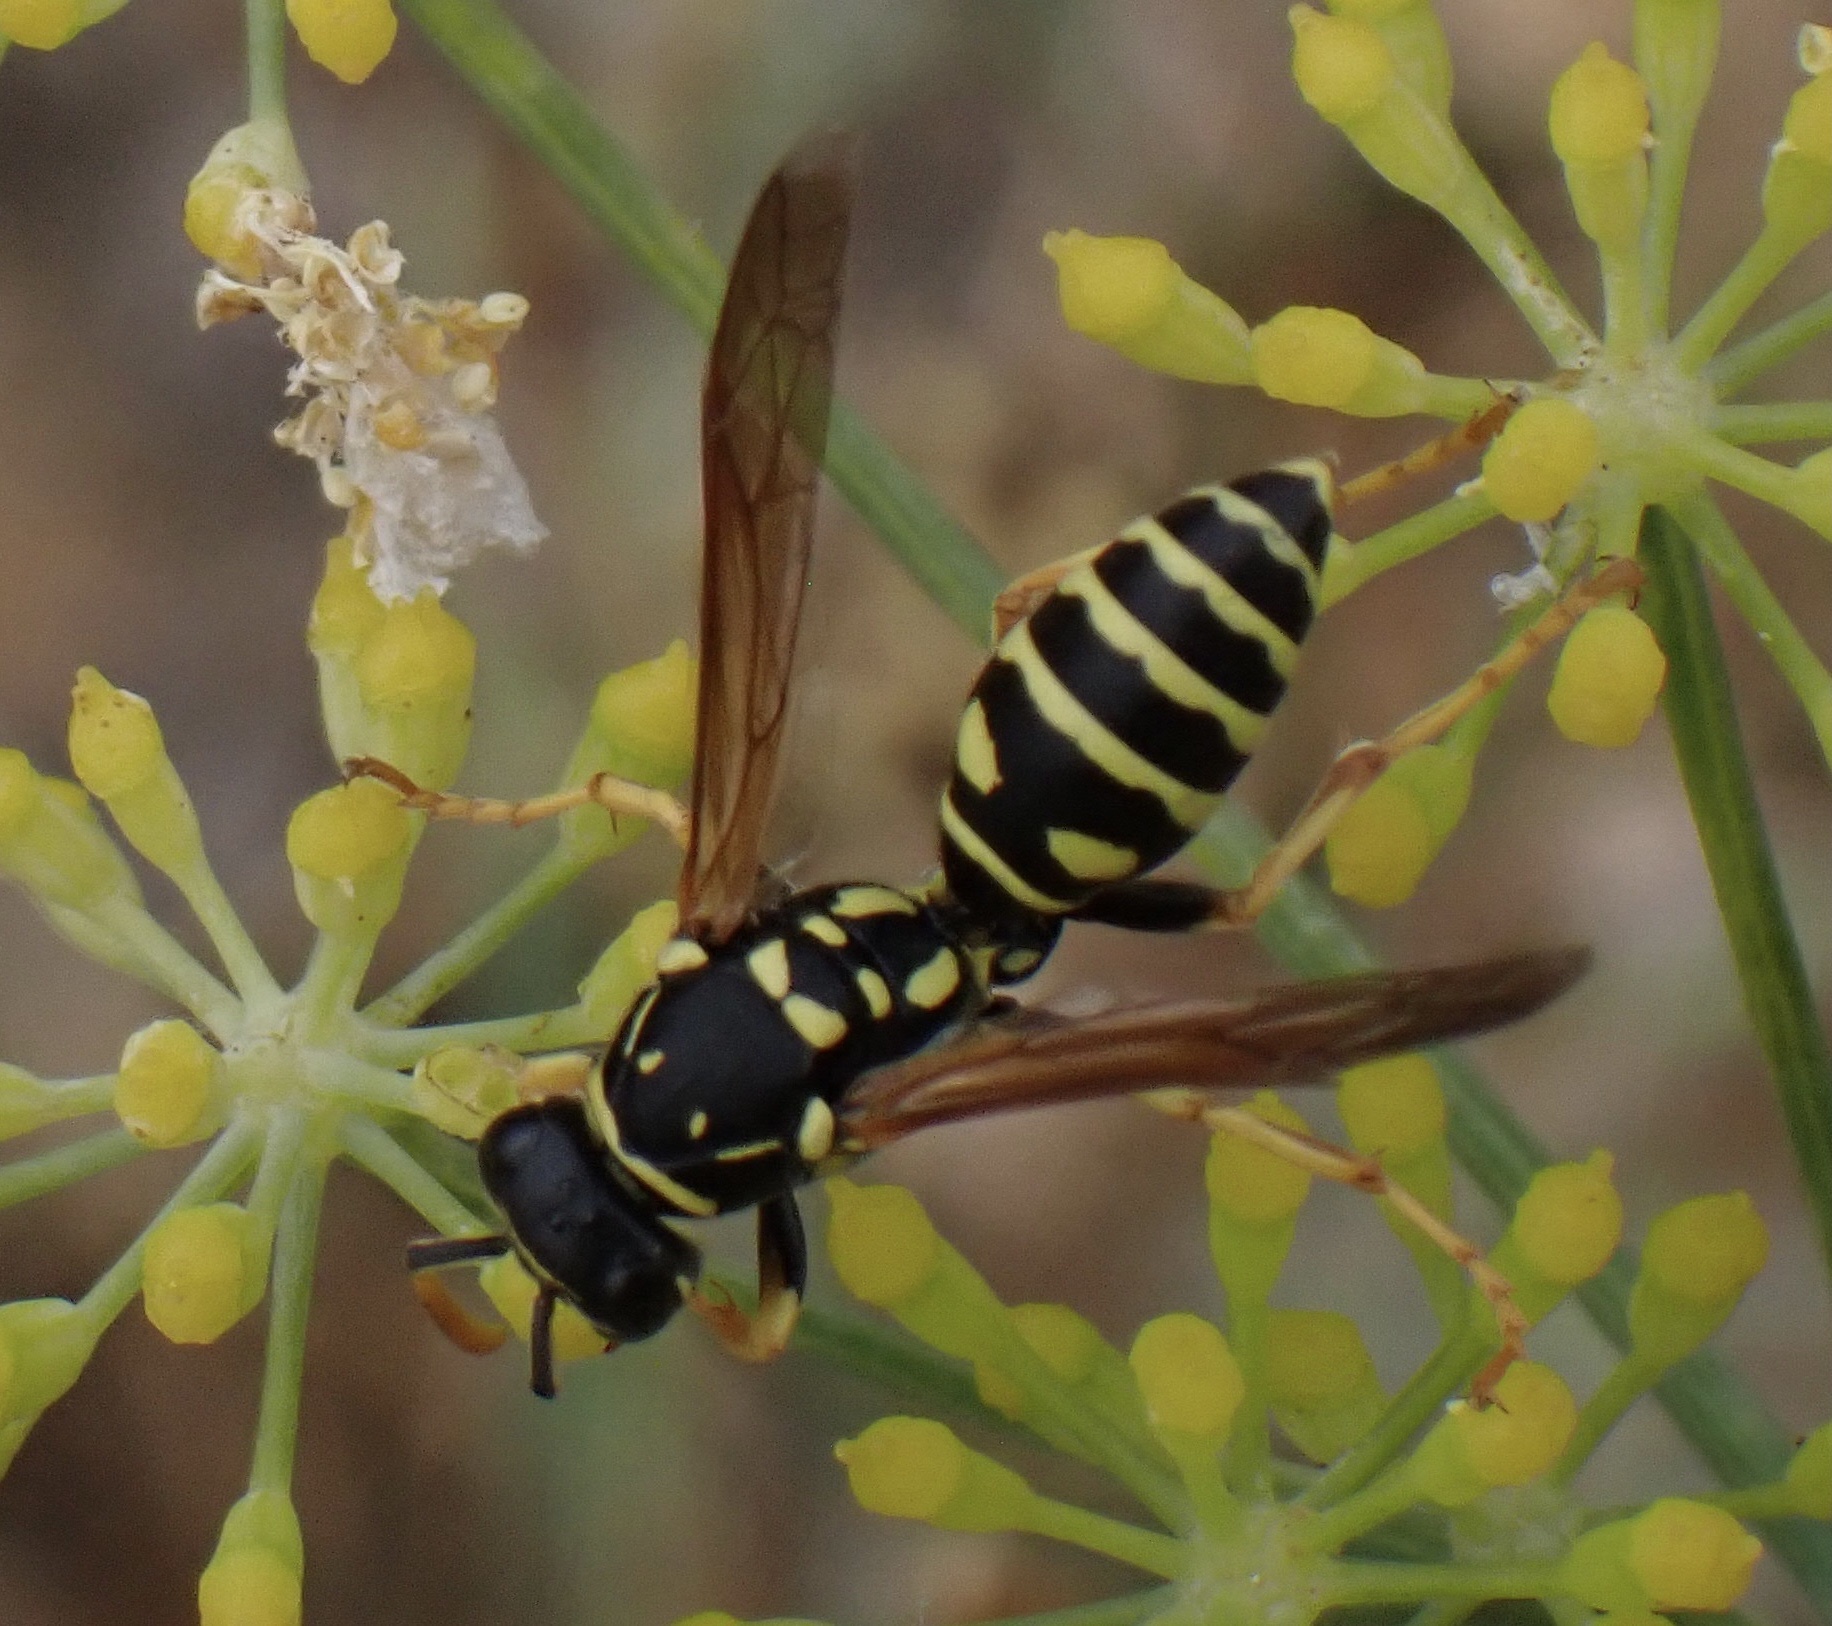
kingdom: Animalia
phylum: Arthropoda
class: Insecta
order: Hymenoptera
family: Eumenidae
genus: Polistes
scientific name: Polistes gallicus
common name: Paper wasp
